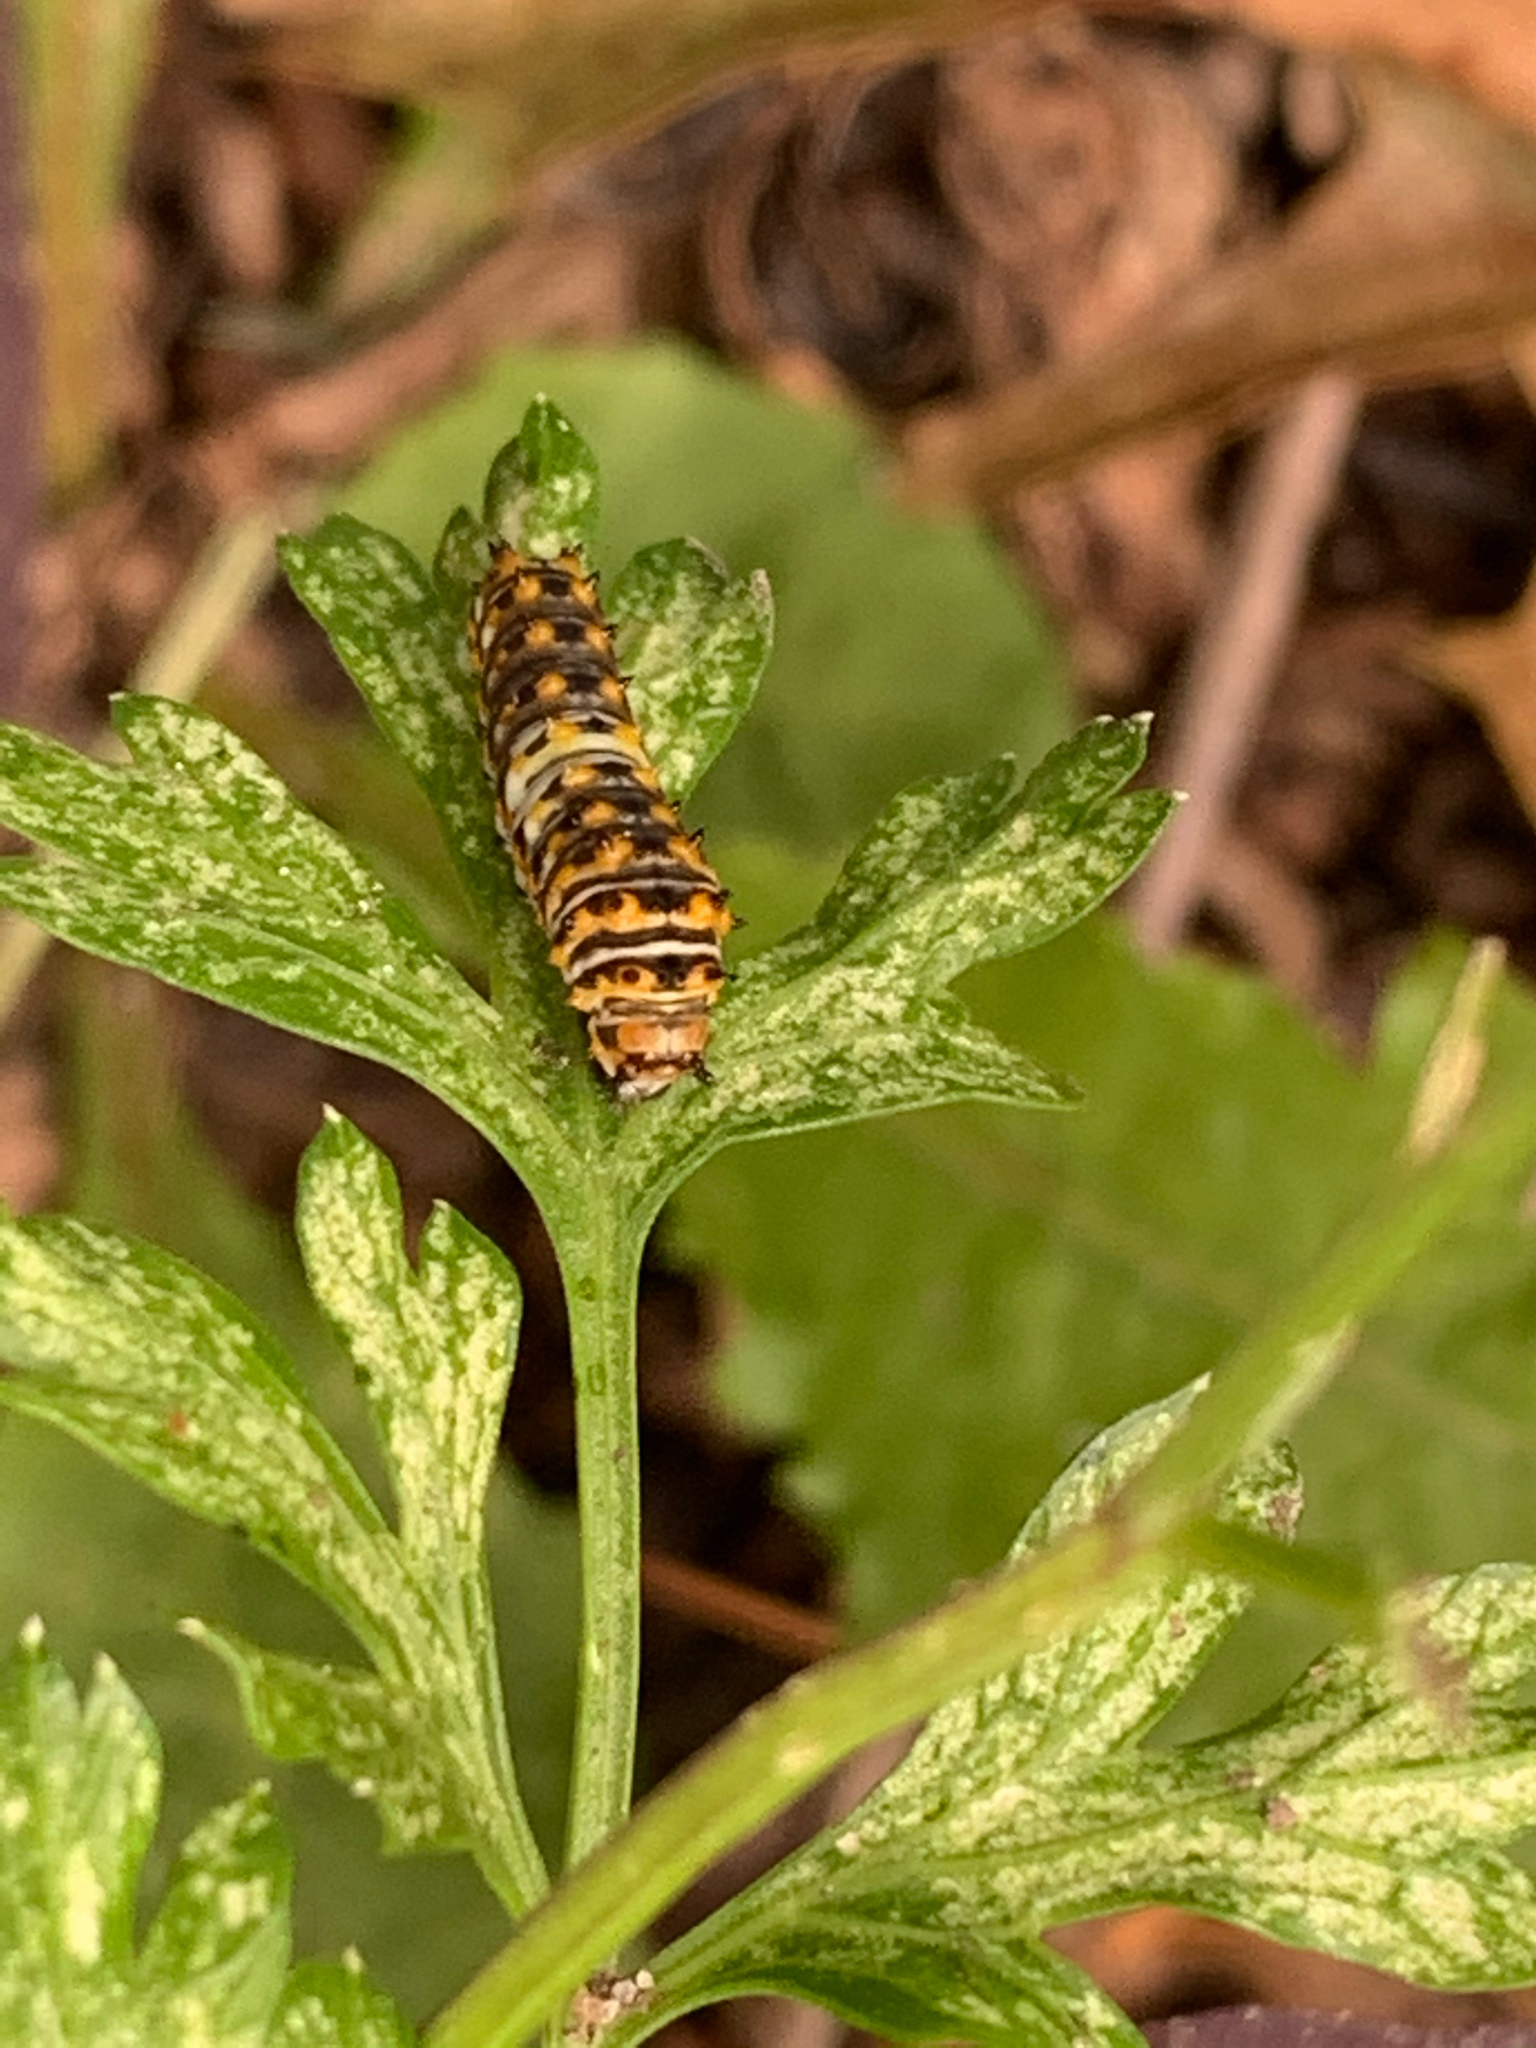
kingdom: Animalia
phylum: Arthropoda
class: Insecta
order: Lepidoptera
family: Papilionidae
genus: Papilio
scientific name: Papilio polyxenes
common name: Black swallowtail
